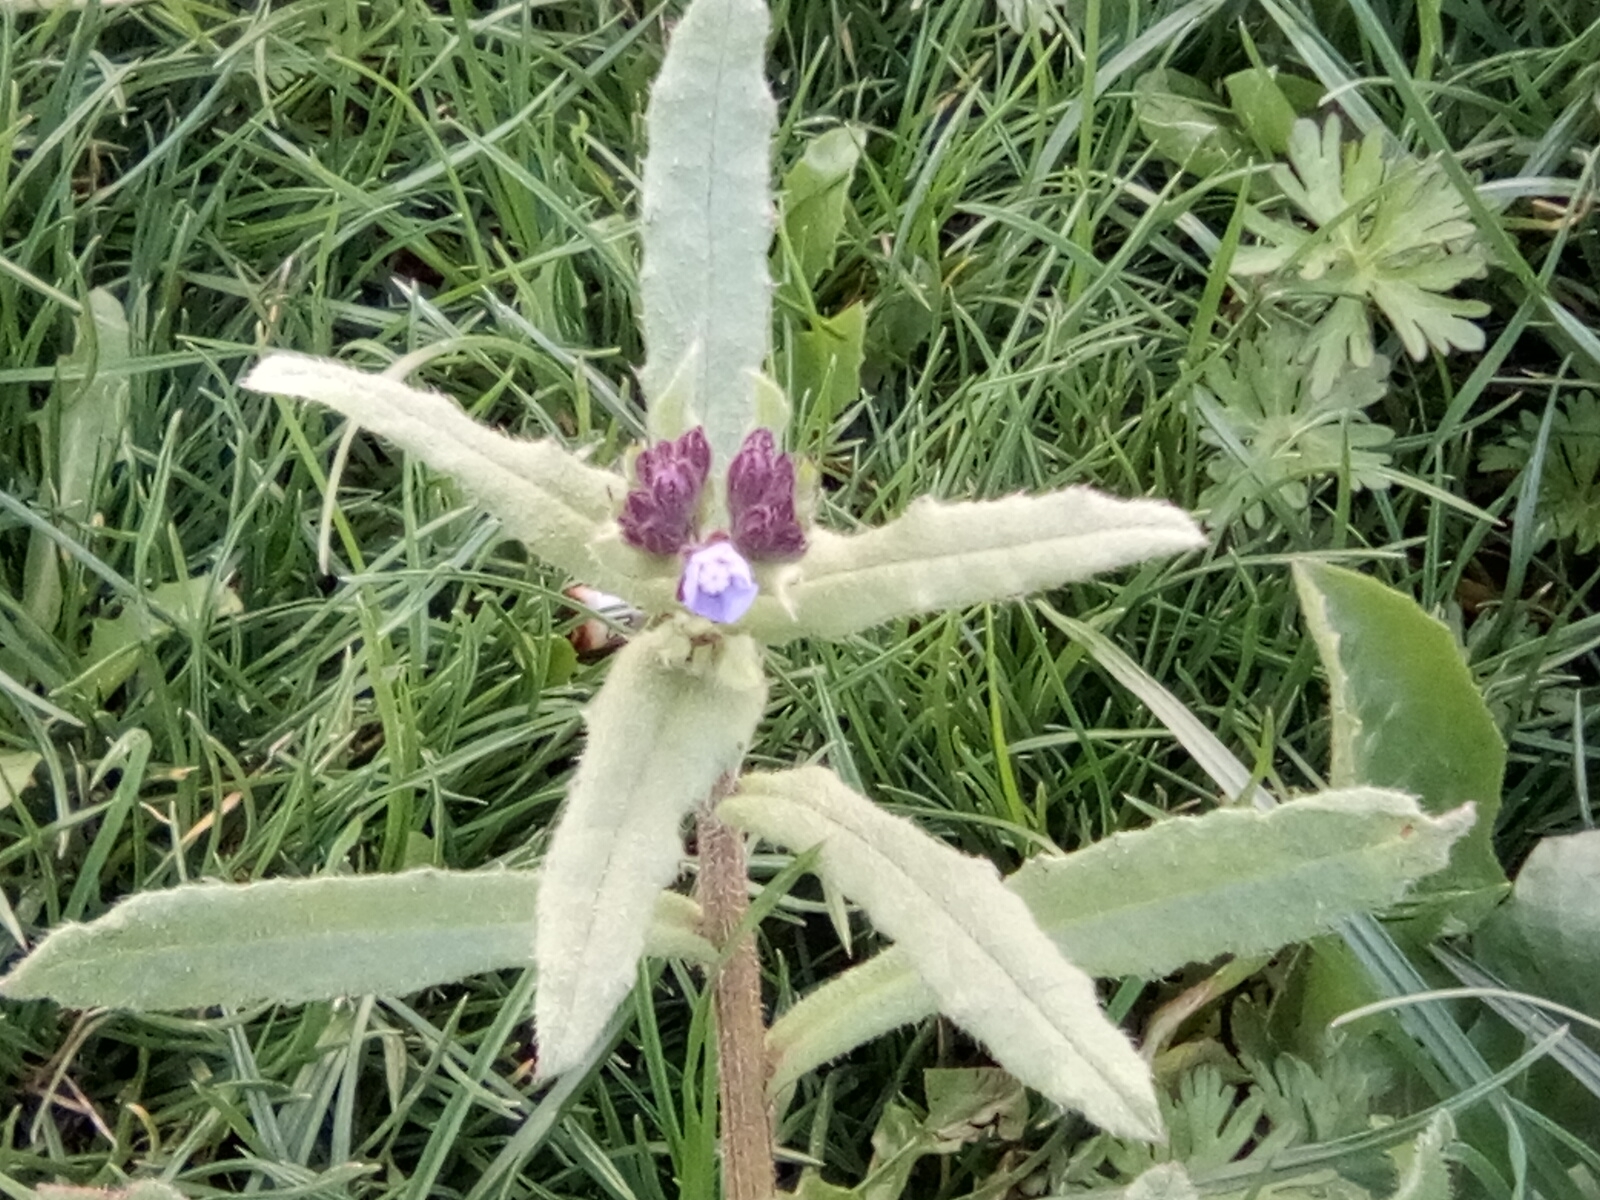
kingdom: Plantae
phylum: Tracheophyta
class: Magnoliopsida
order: Boraginales
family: Boraginaceae
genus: Lycopsis
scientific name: Lycopsis arvensis
